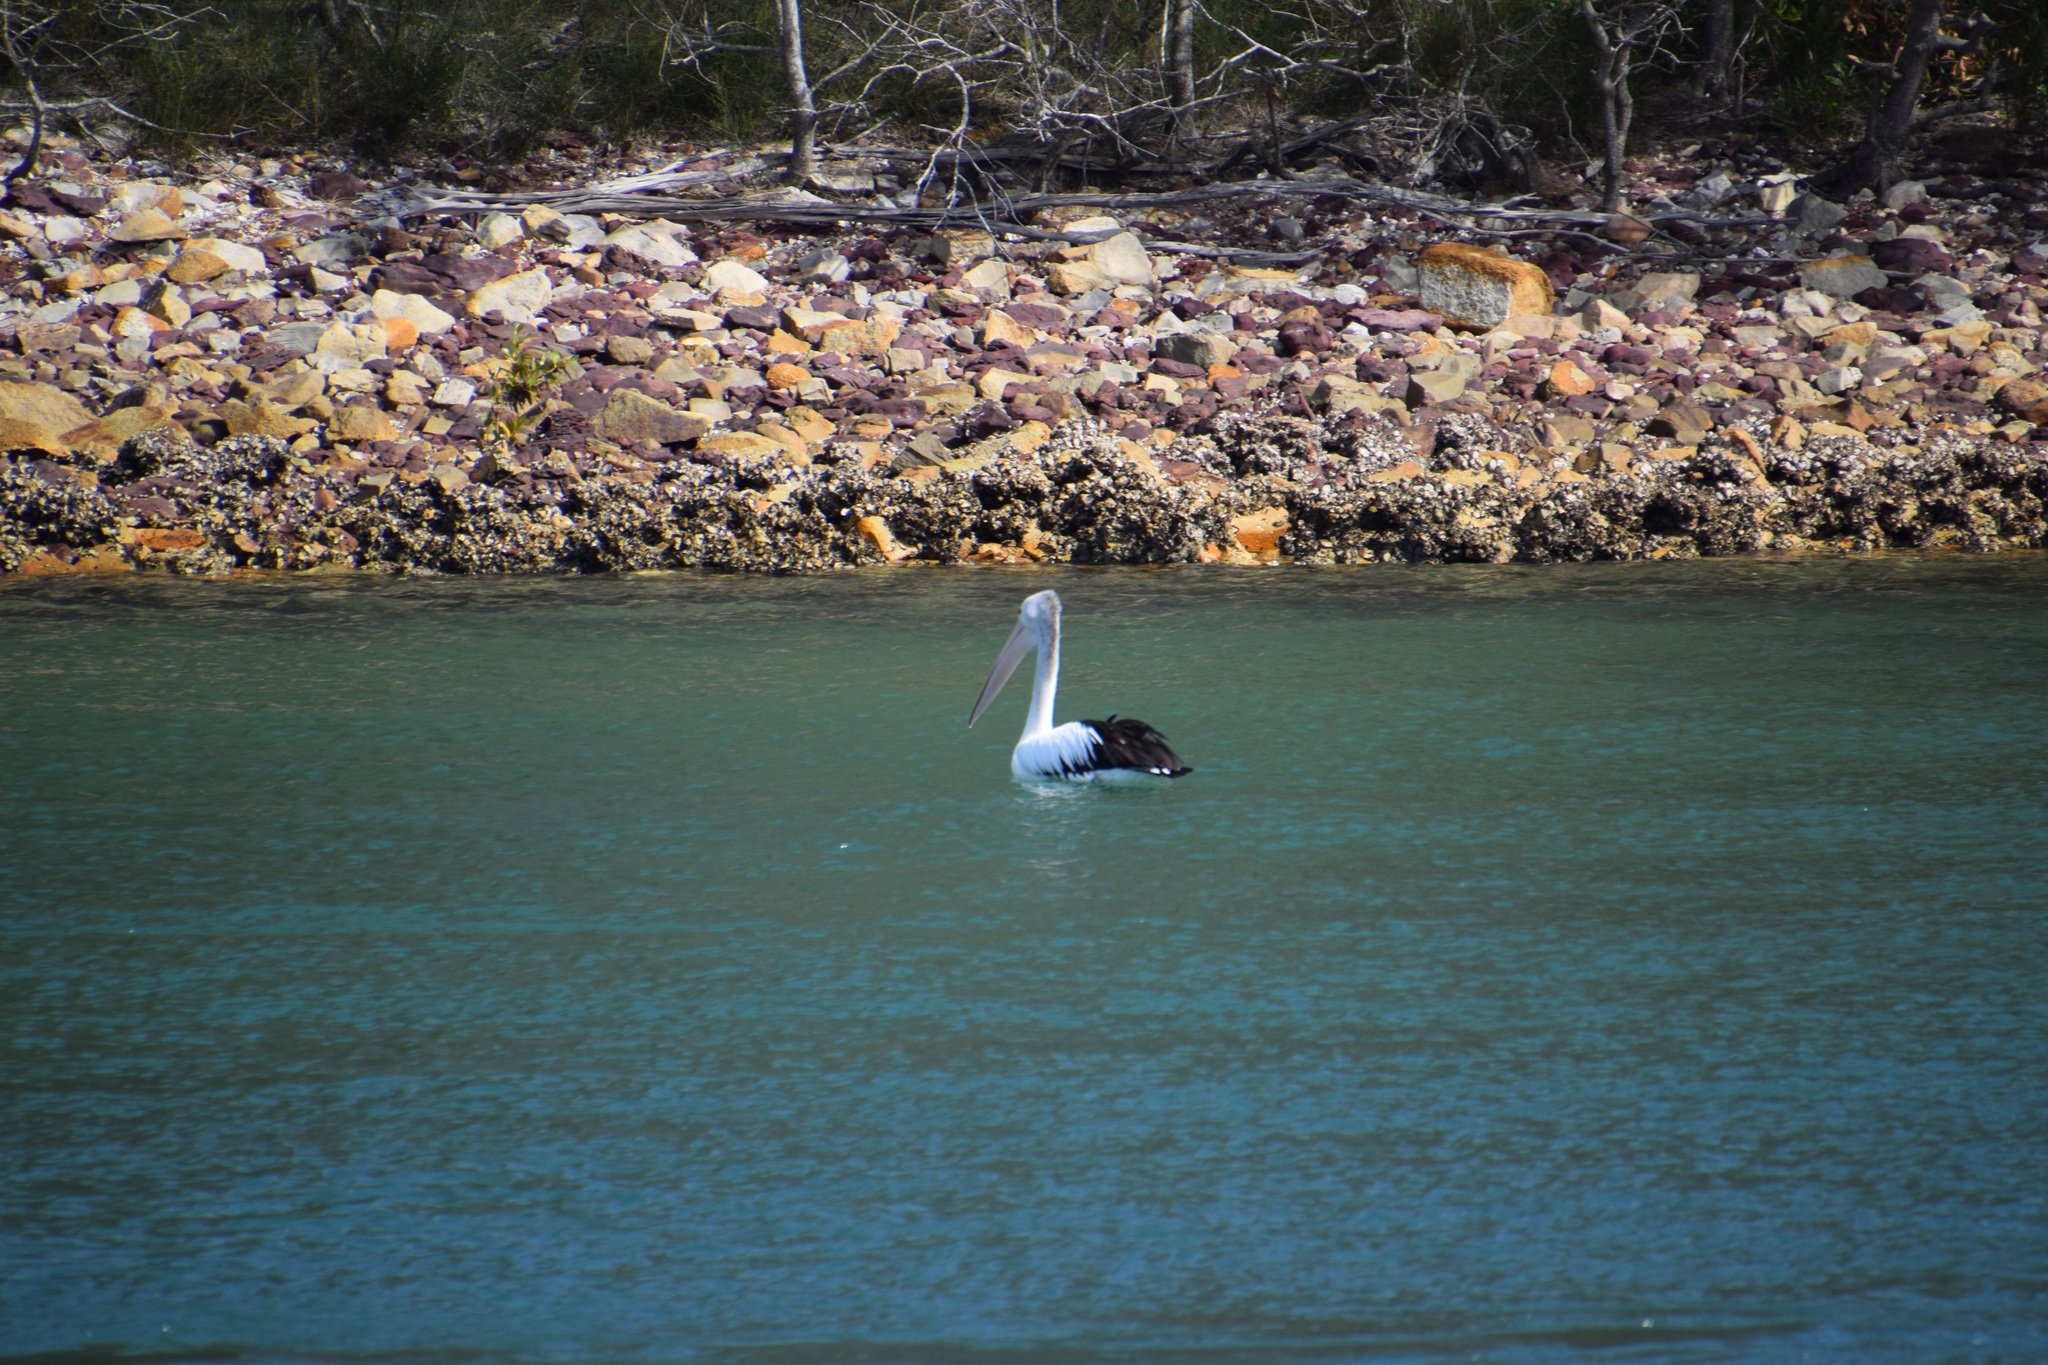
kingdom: Animalia
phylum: Chordata
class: Aves
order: Pelecaniformes
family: Pelecanidae
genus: Pelecanus
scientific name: Pelecanus conspicillatus
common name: Australian pelican
